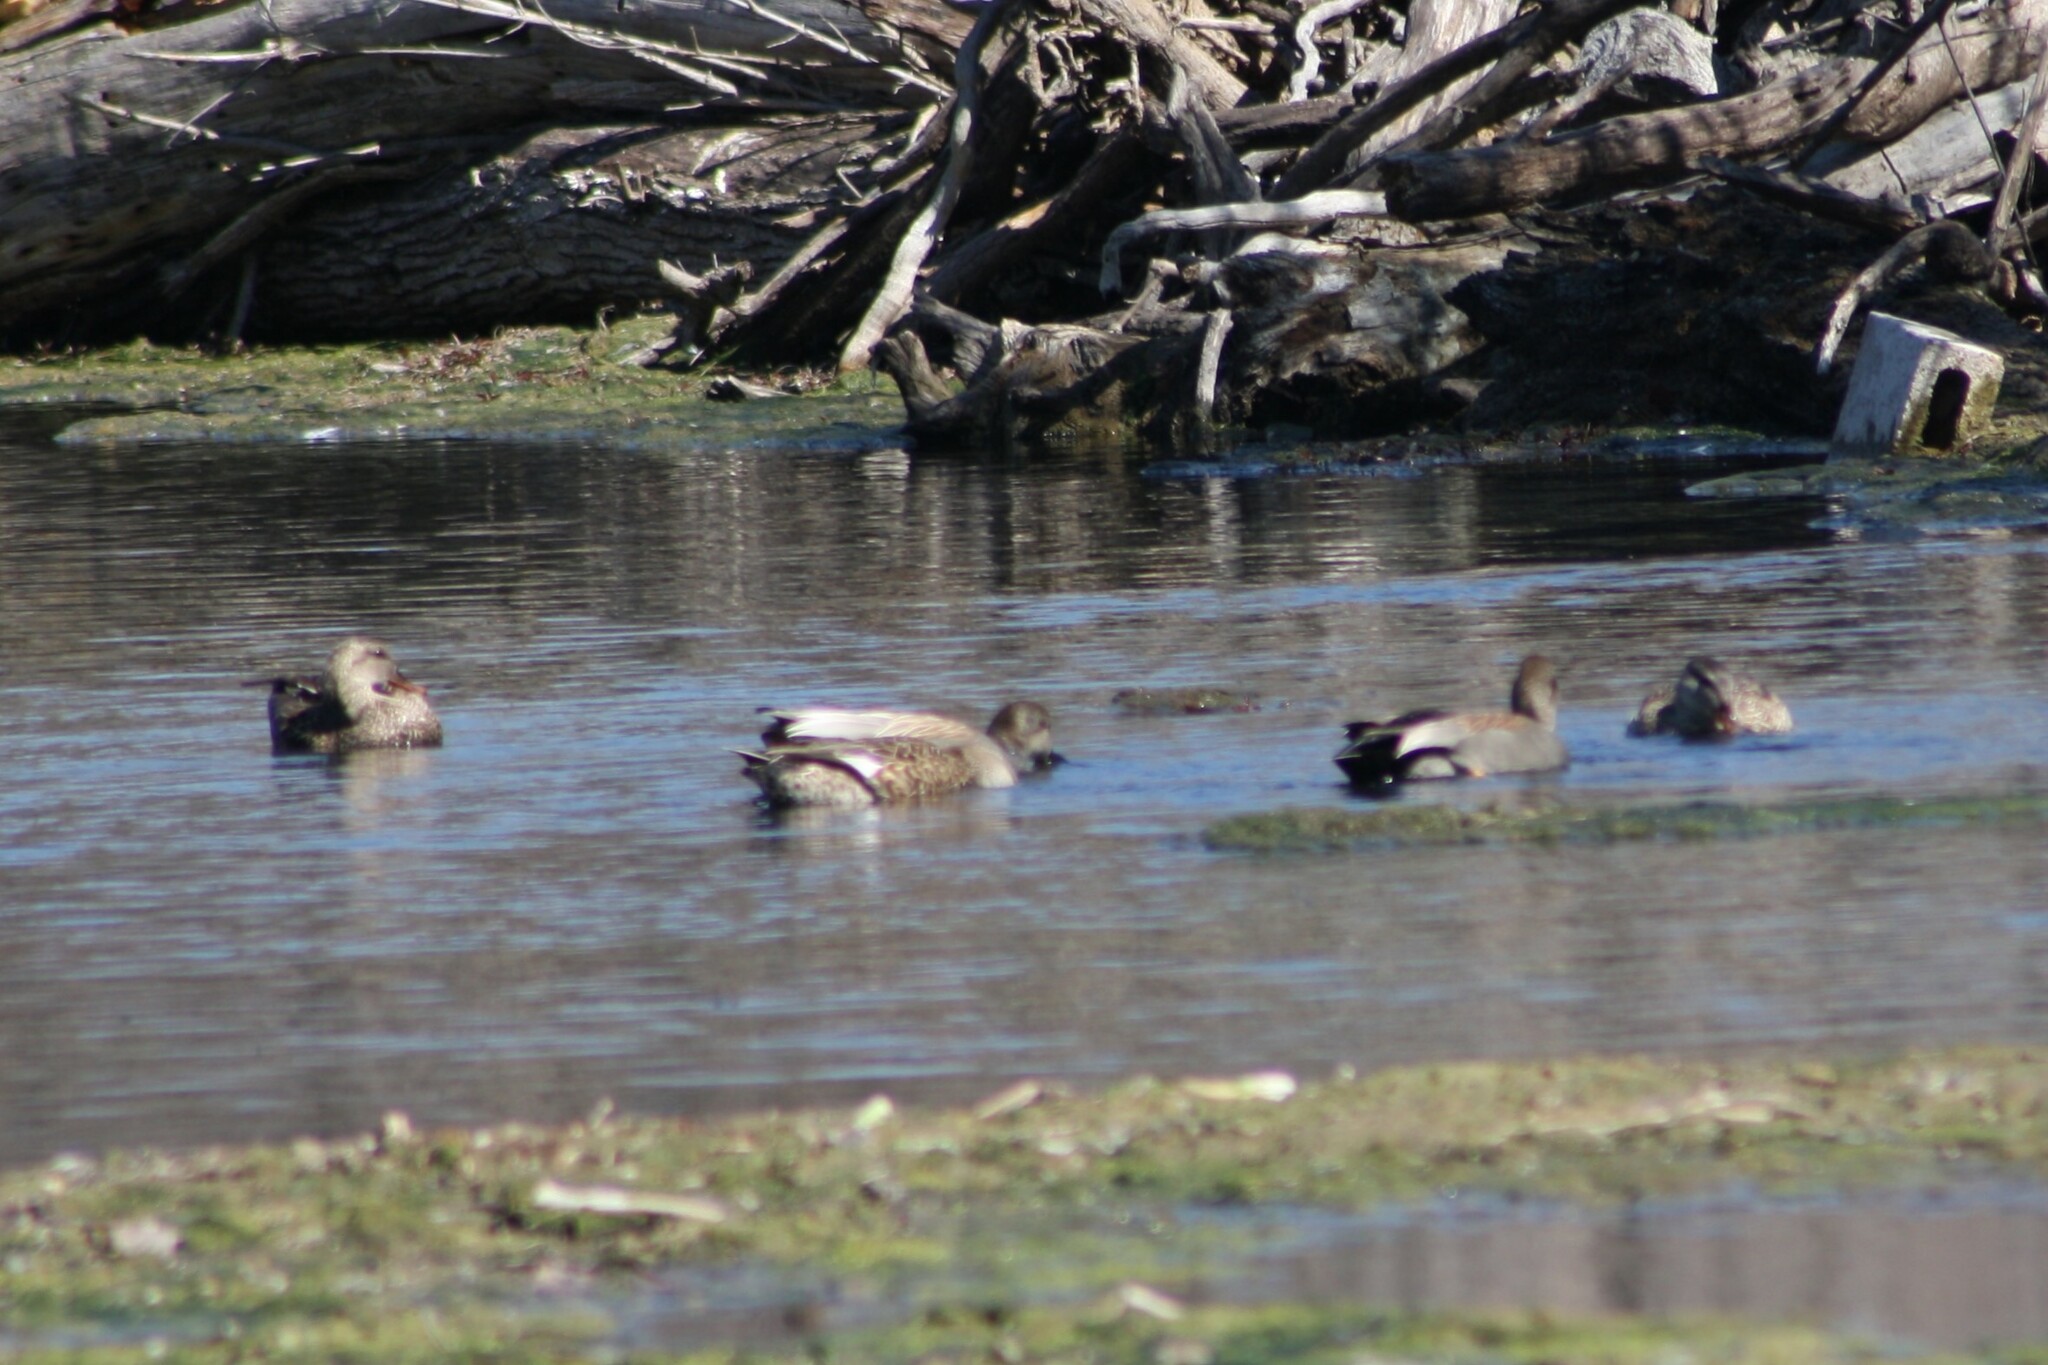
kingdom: Animalia
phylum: Chordata
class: Aves
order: Anseriformes
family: Anatidae
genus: Mareca
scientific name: Mareca strepera
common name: Gadwall
